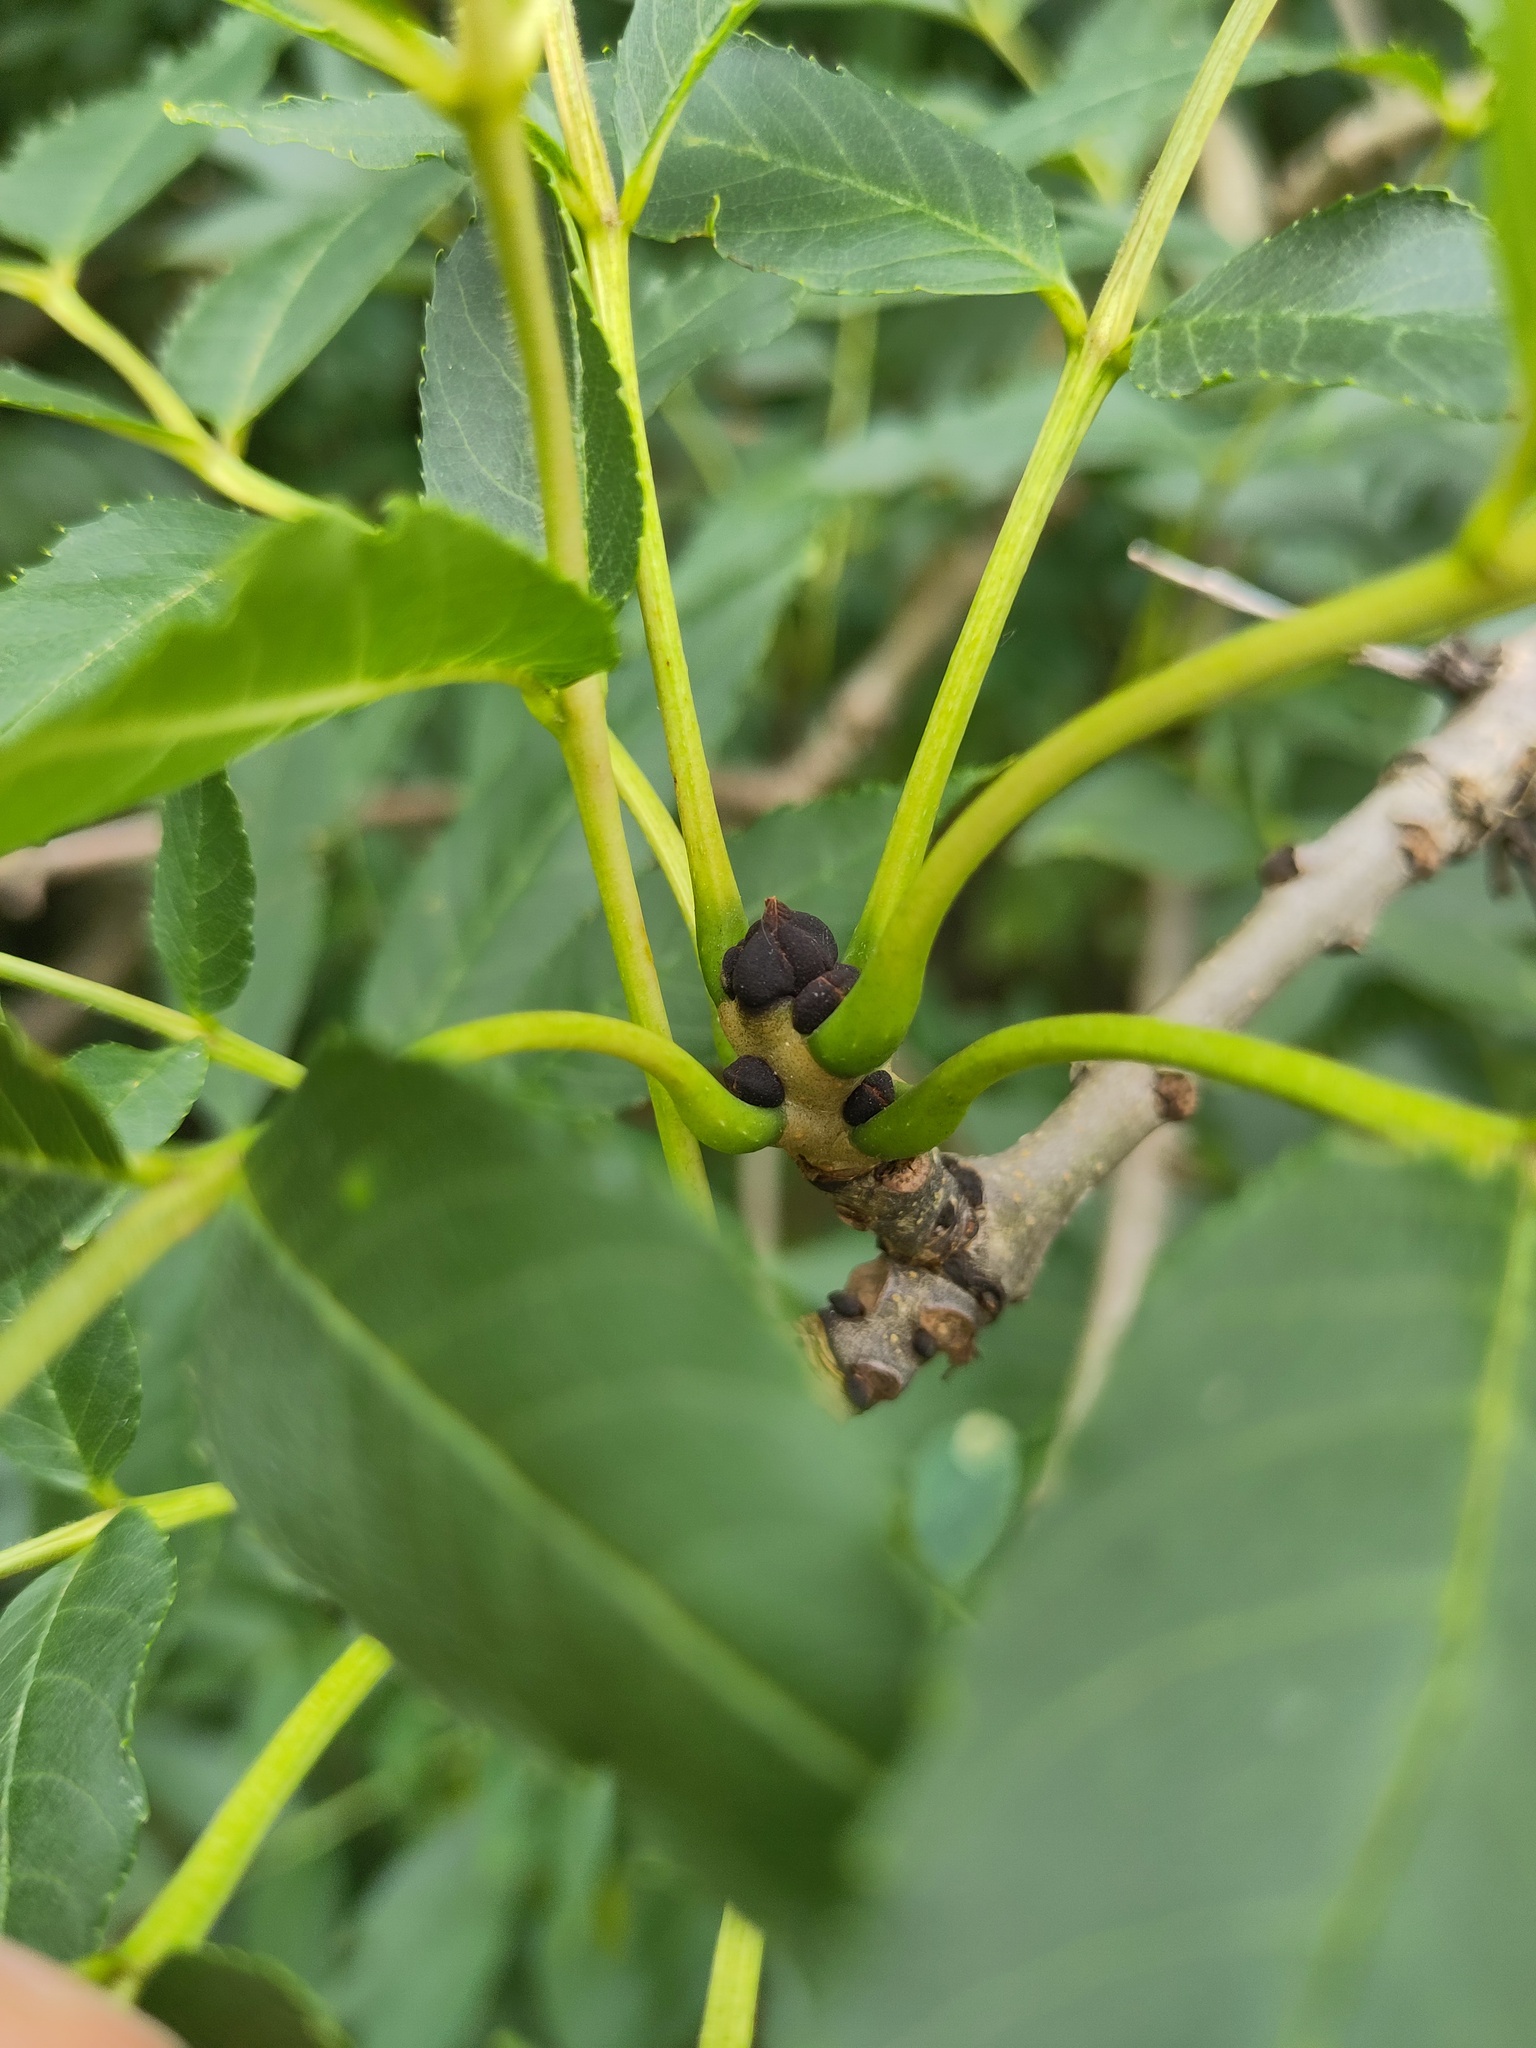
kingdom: Plantae
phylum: Tracheophyta
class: Magnoliopsida
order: Lamiales
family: Oleaceae
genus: Fraxinus
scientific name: Fraxinus excelsior
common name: European ash
